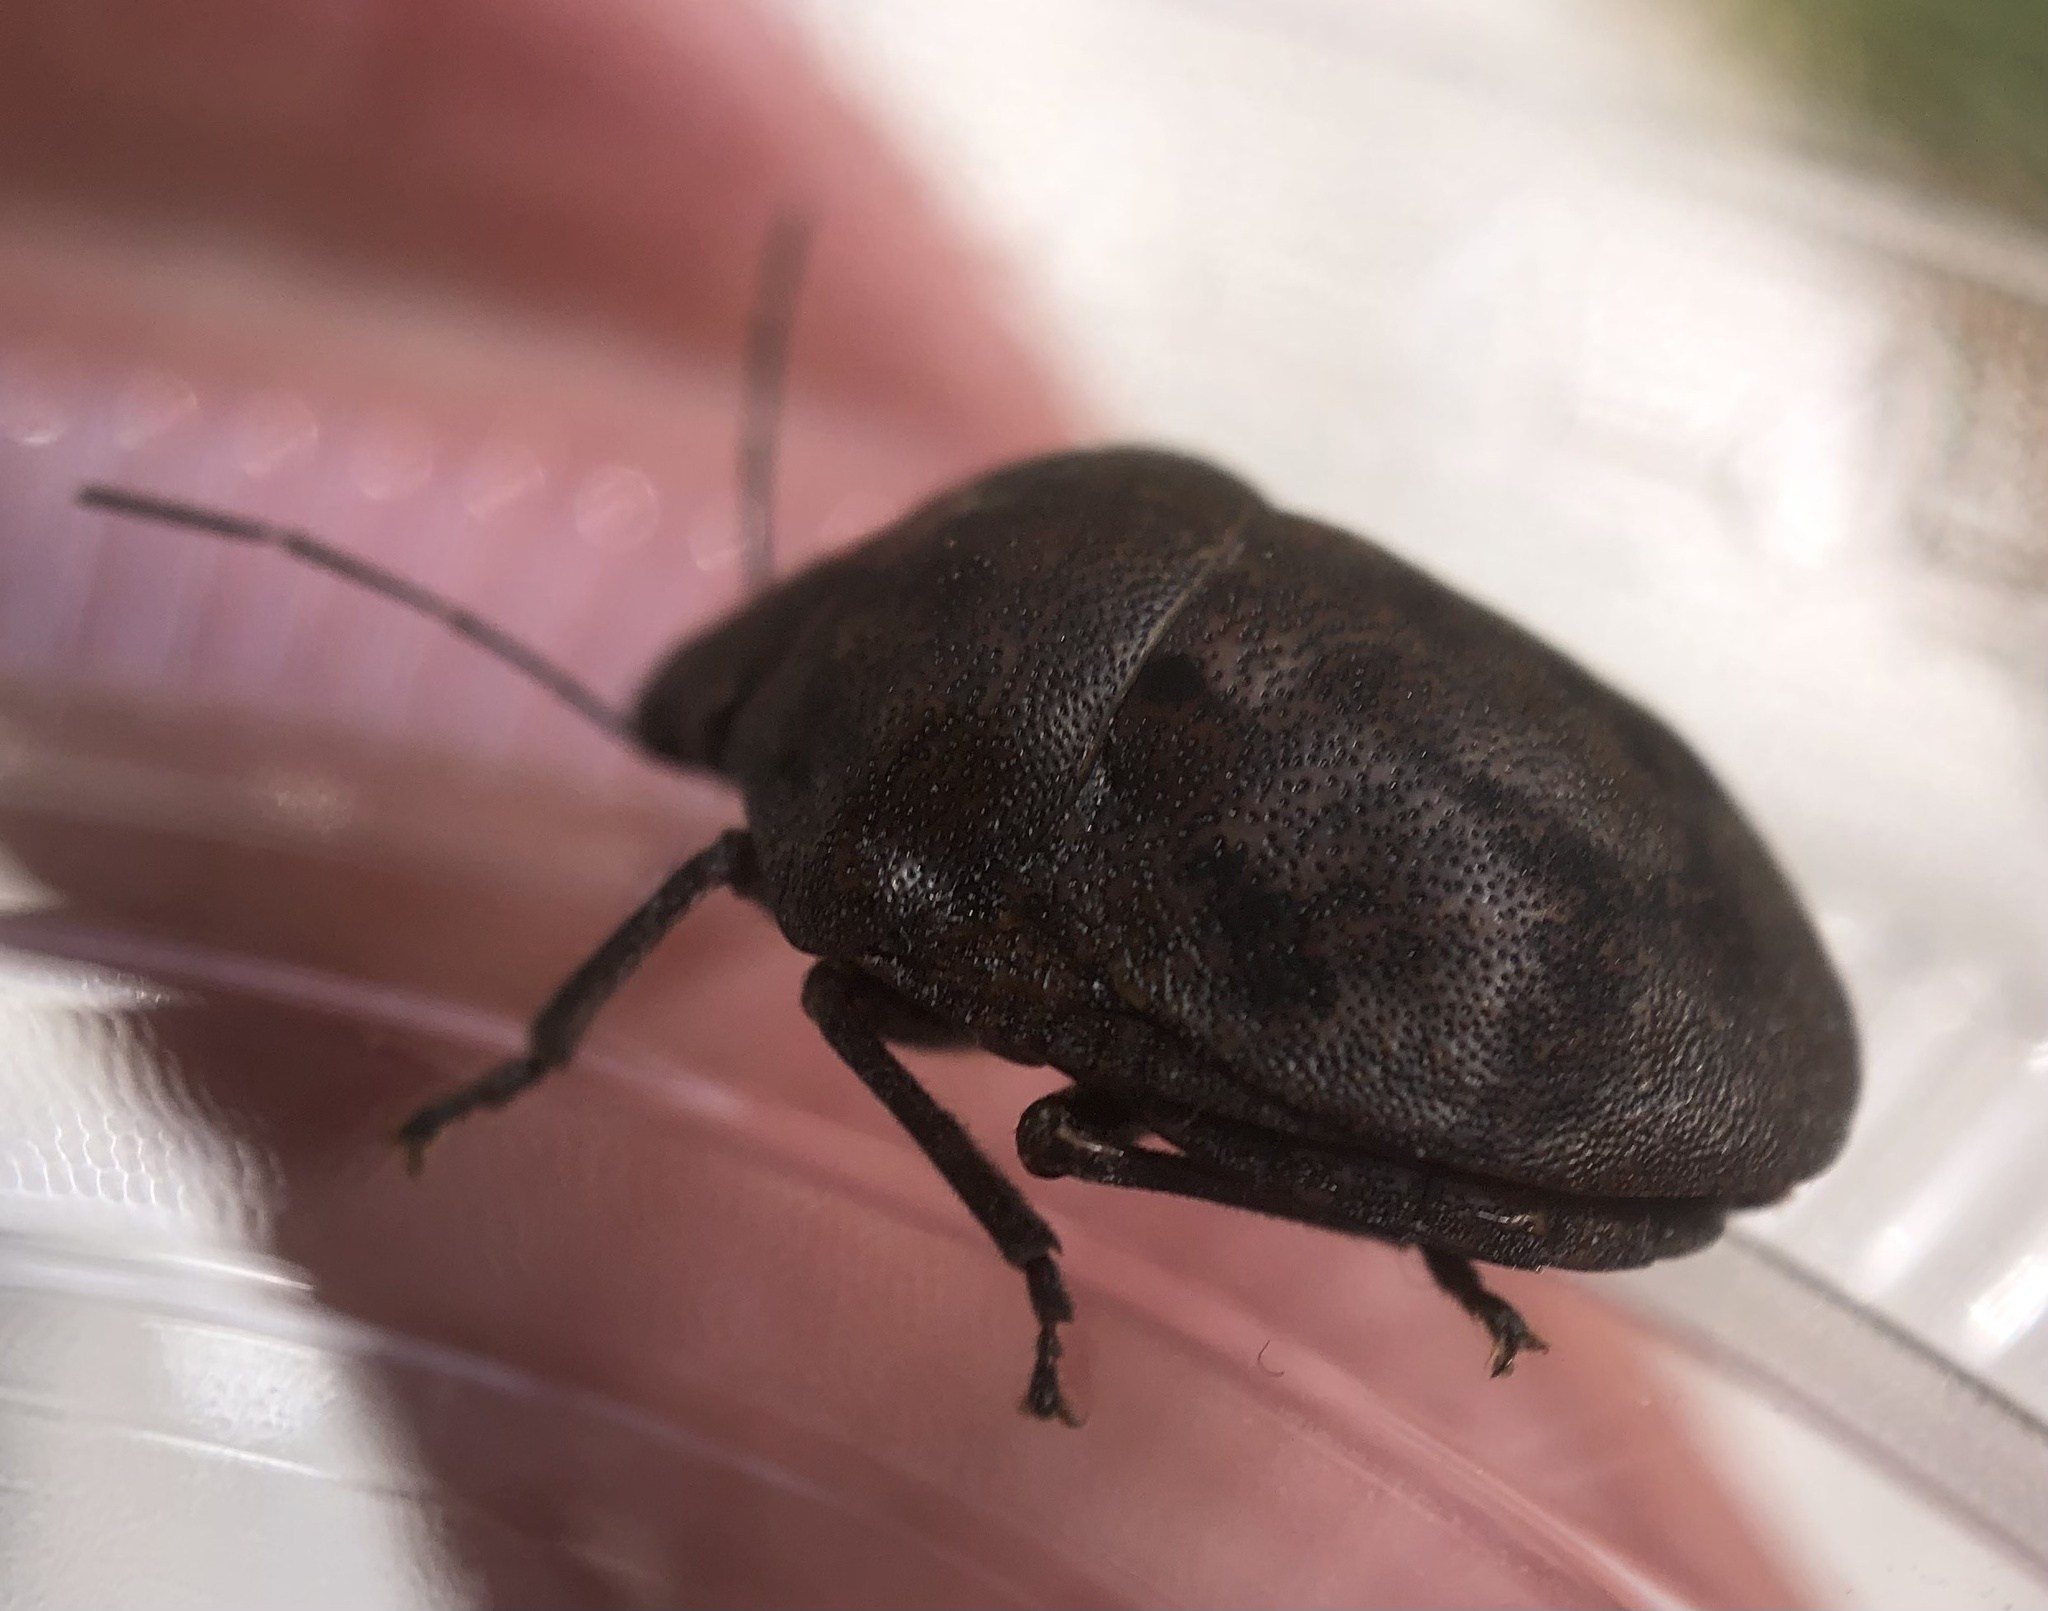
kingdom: Animalia
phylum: Arthropoda
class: Insecta
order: Hemiptera
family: Scutelleridae
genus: Tetyra
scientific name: Tetyra bipunctata
